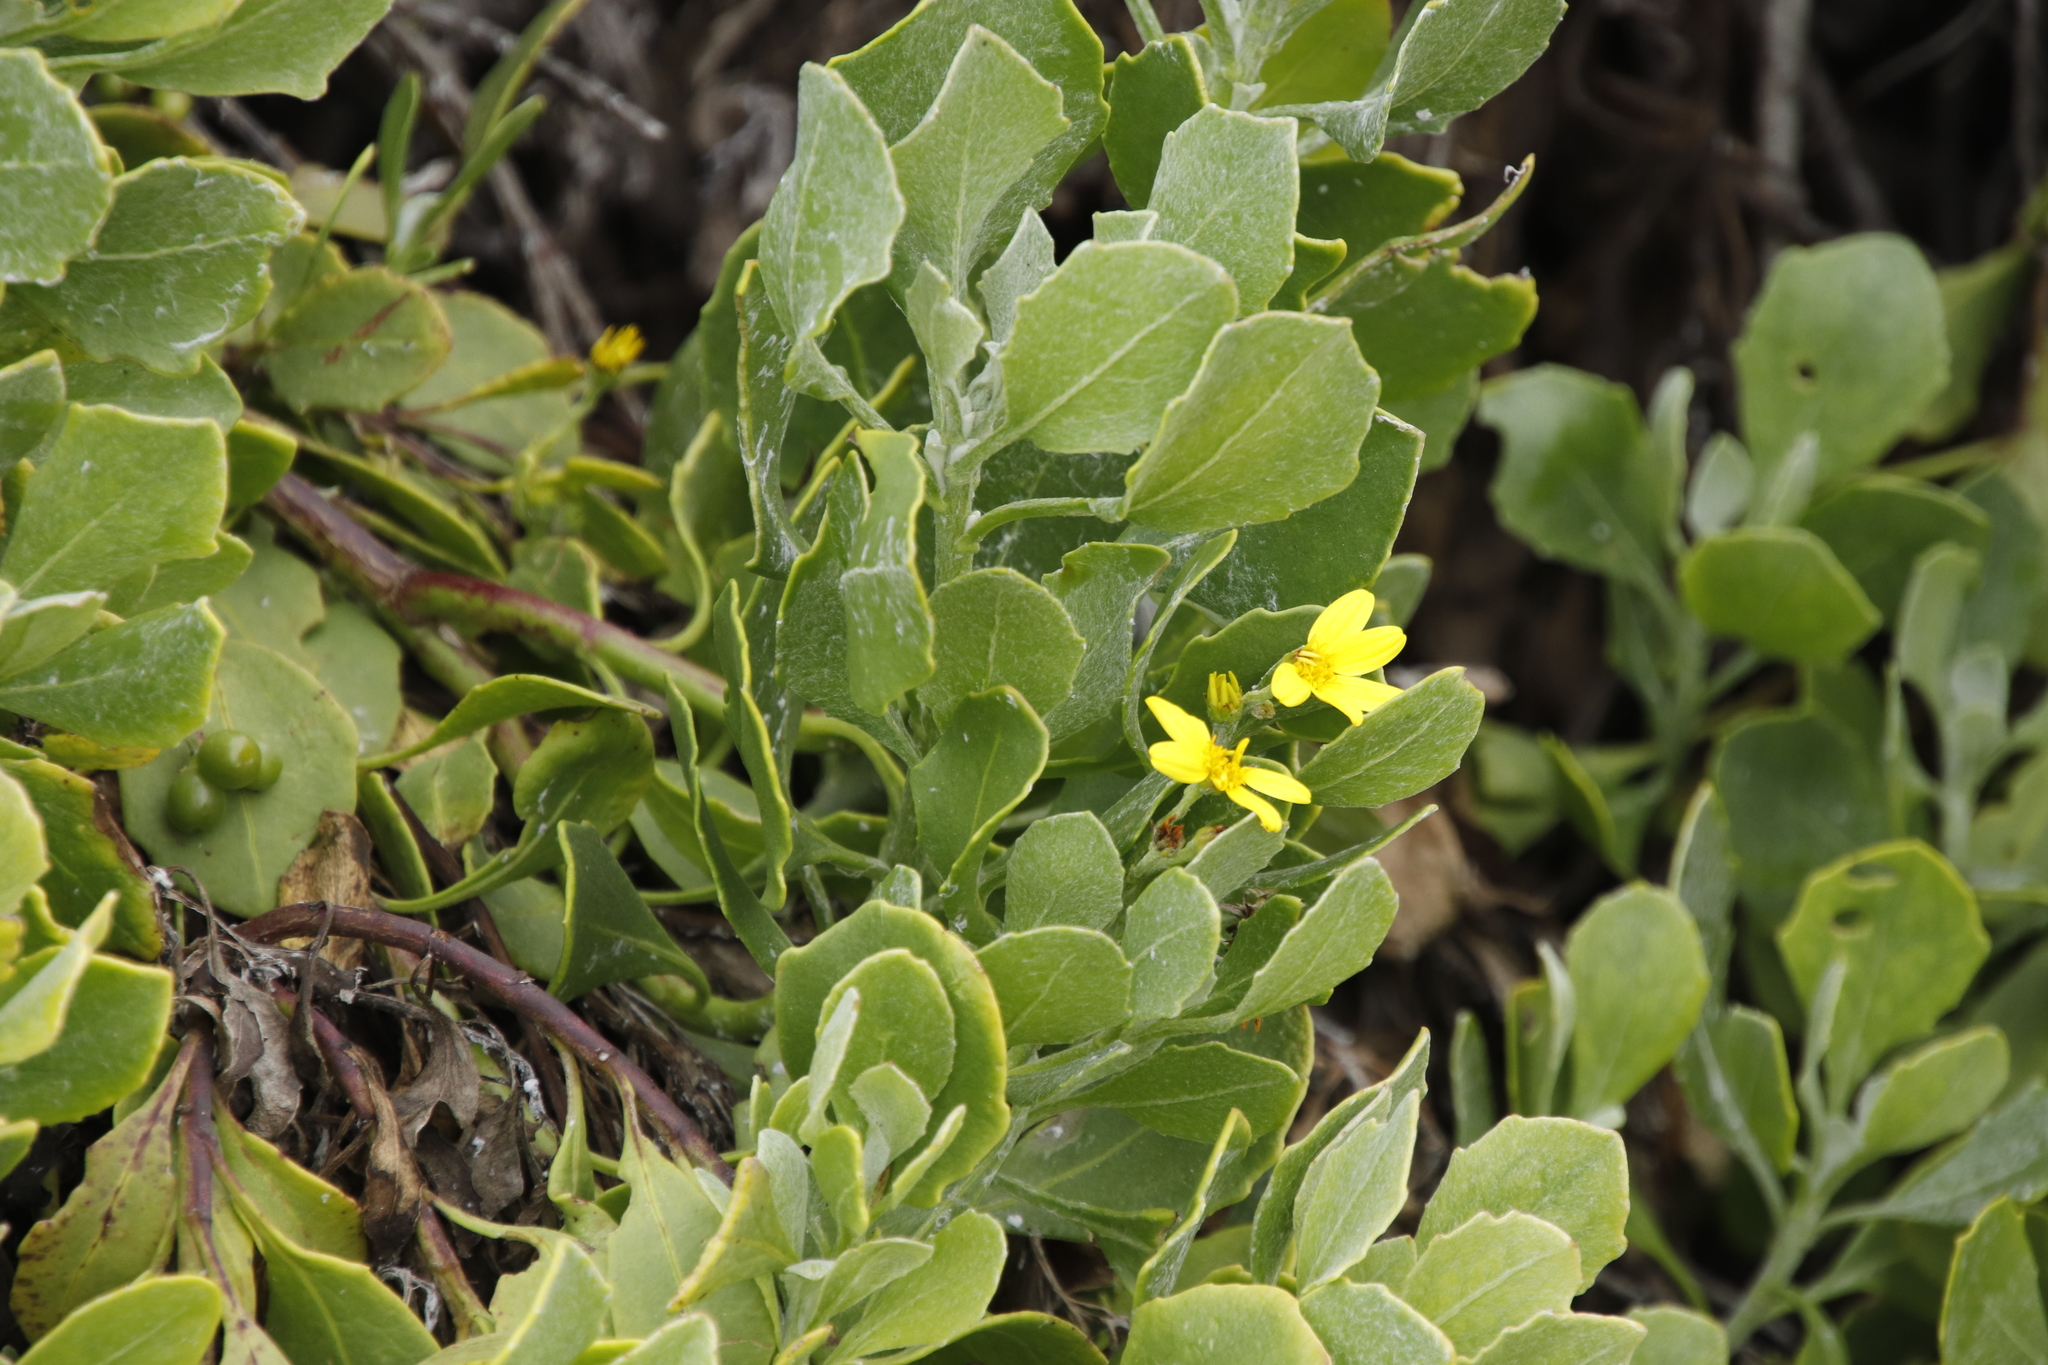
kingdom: Plantae
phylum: Tracheophyta
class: Magnoliopsida
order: Asterales
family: Asteraceae
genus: Osteospermum
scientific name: Osteospermum moniliferum
